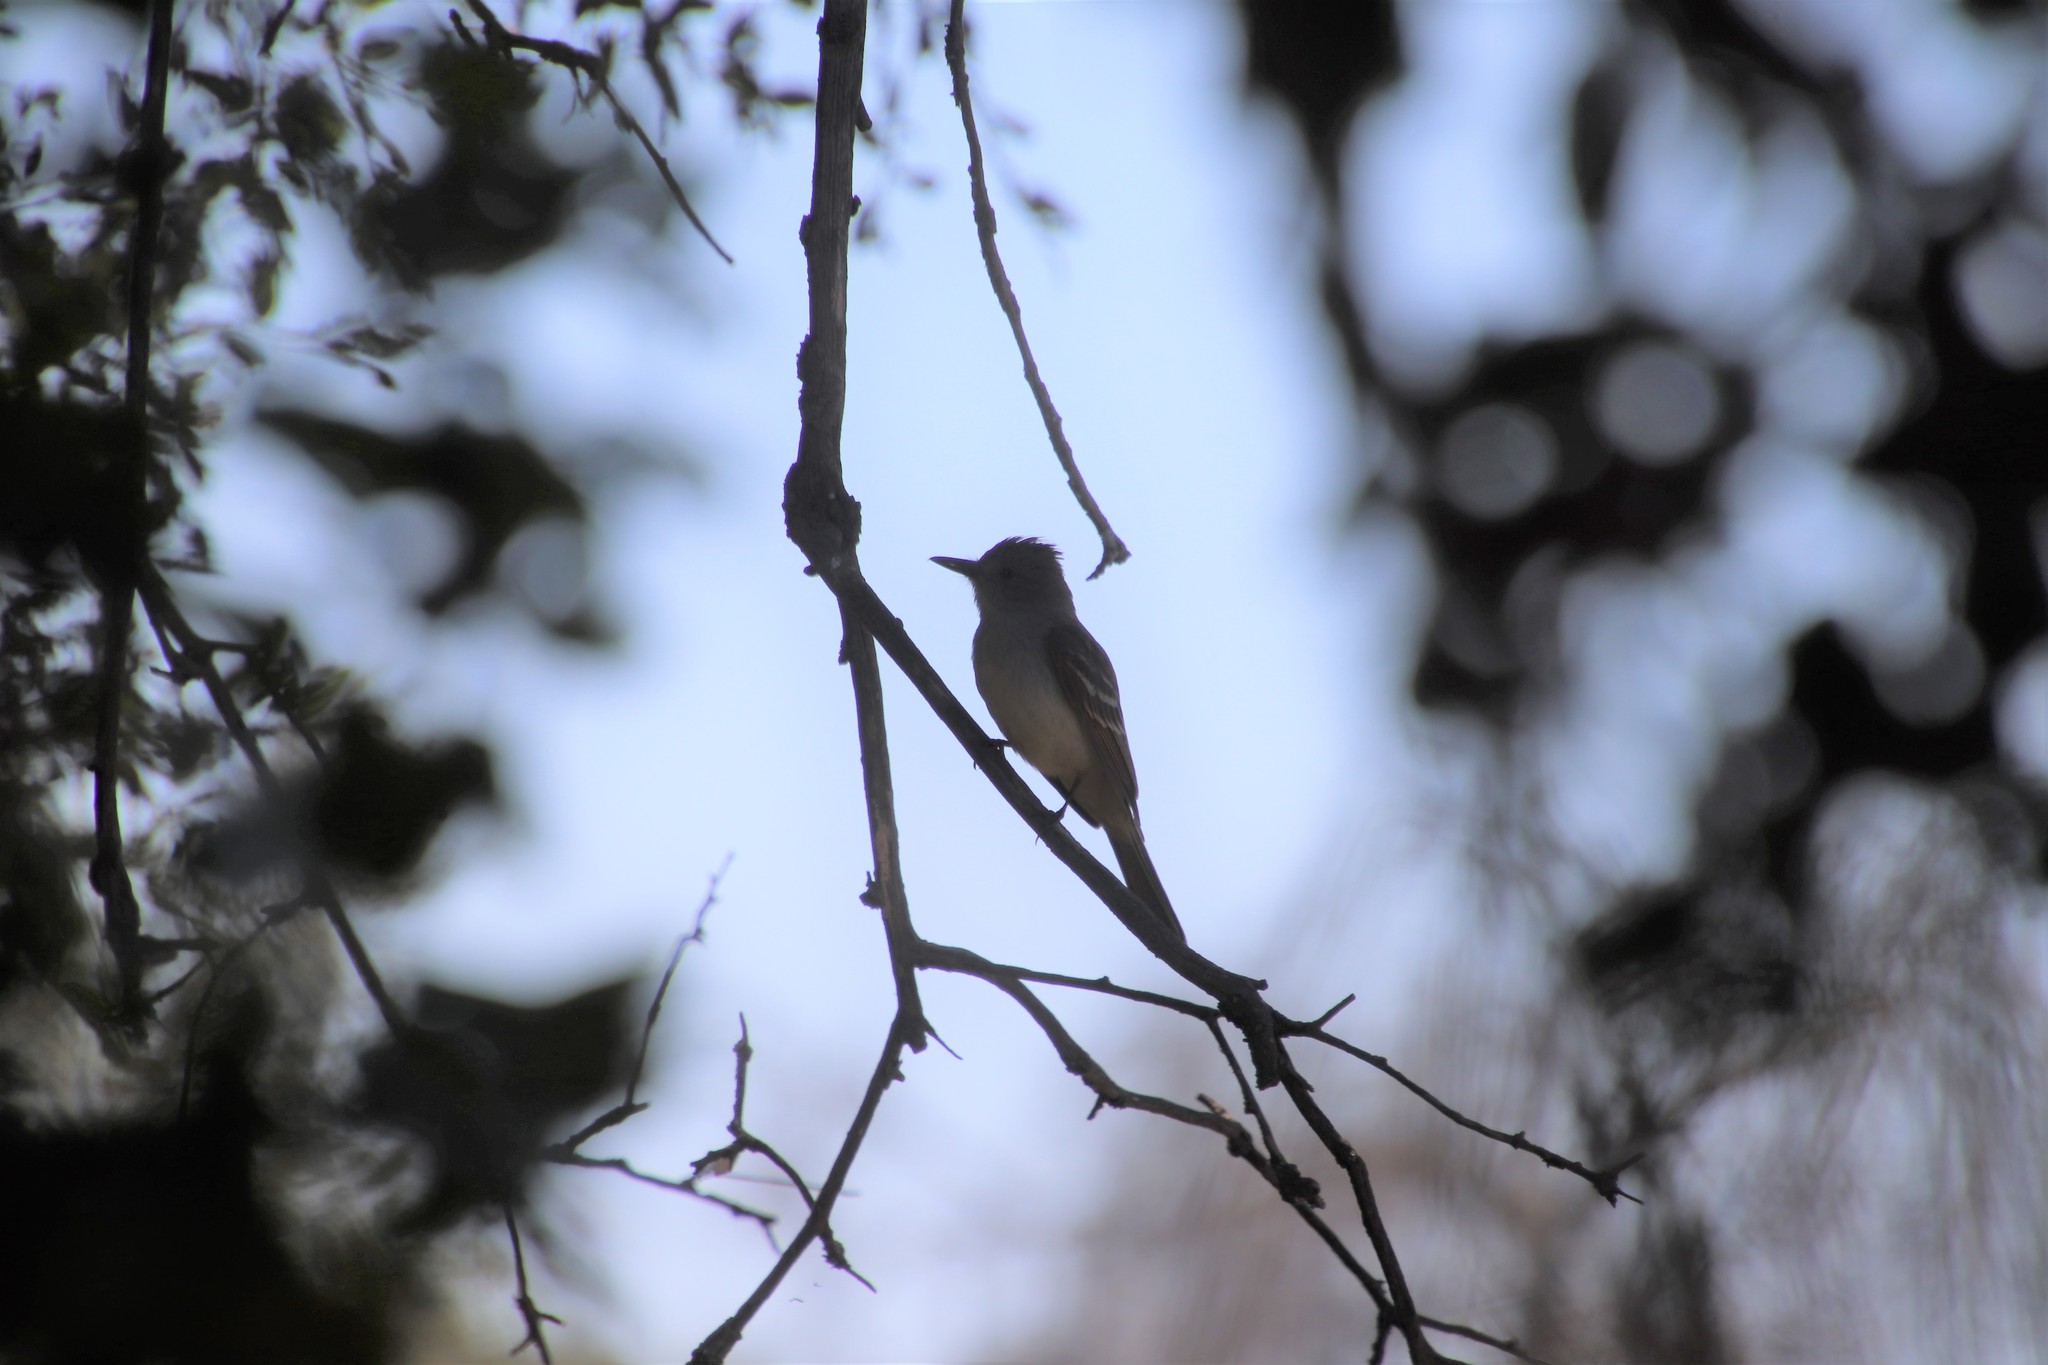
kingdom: Animalia
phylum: Chordata
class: Aves
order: Passeriformes
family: Tyrannidae
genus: Myiarchus
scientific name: Myiarchus cinerascens
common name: Ash-throated flycatcher
